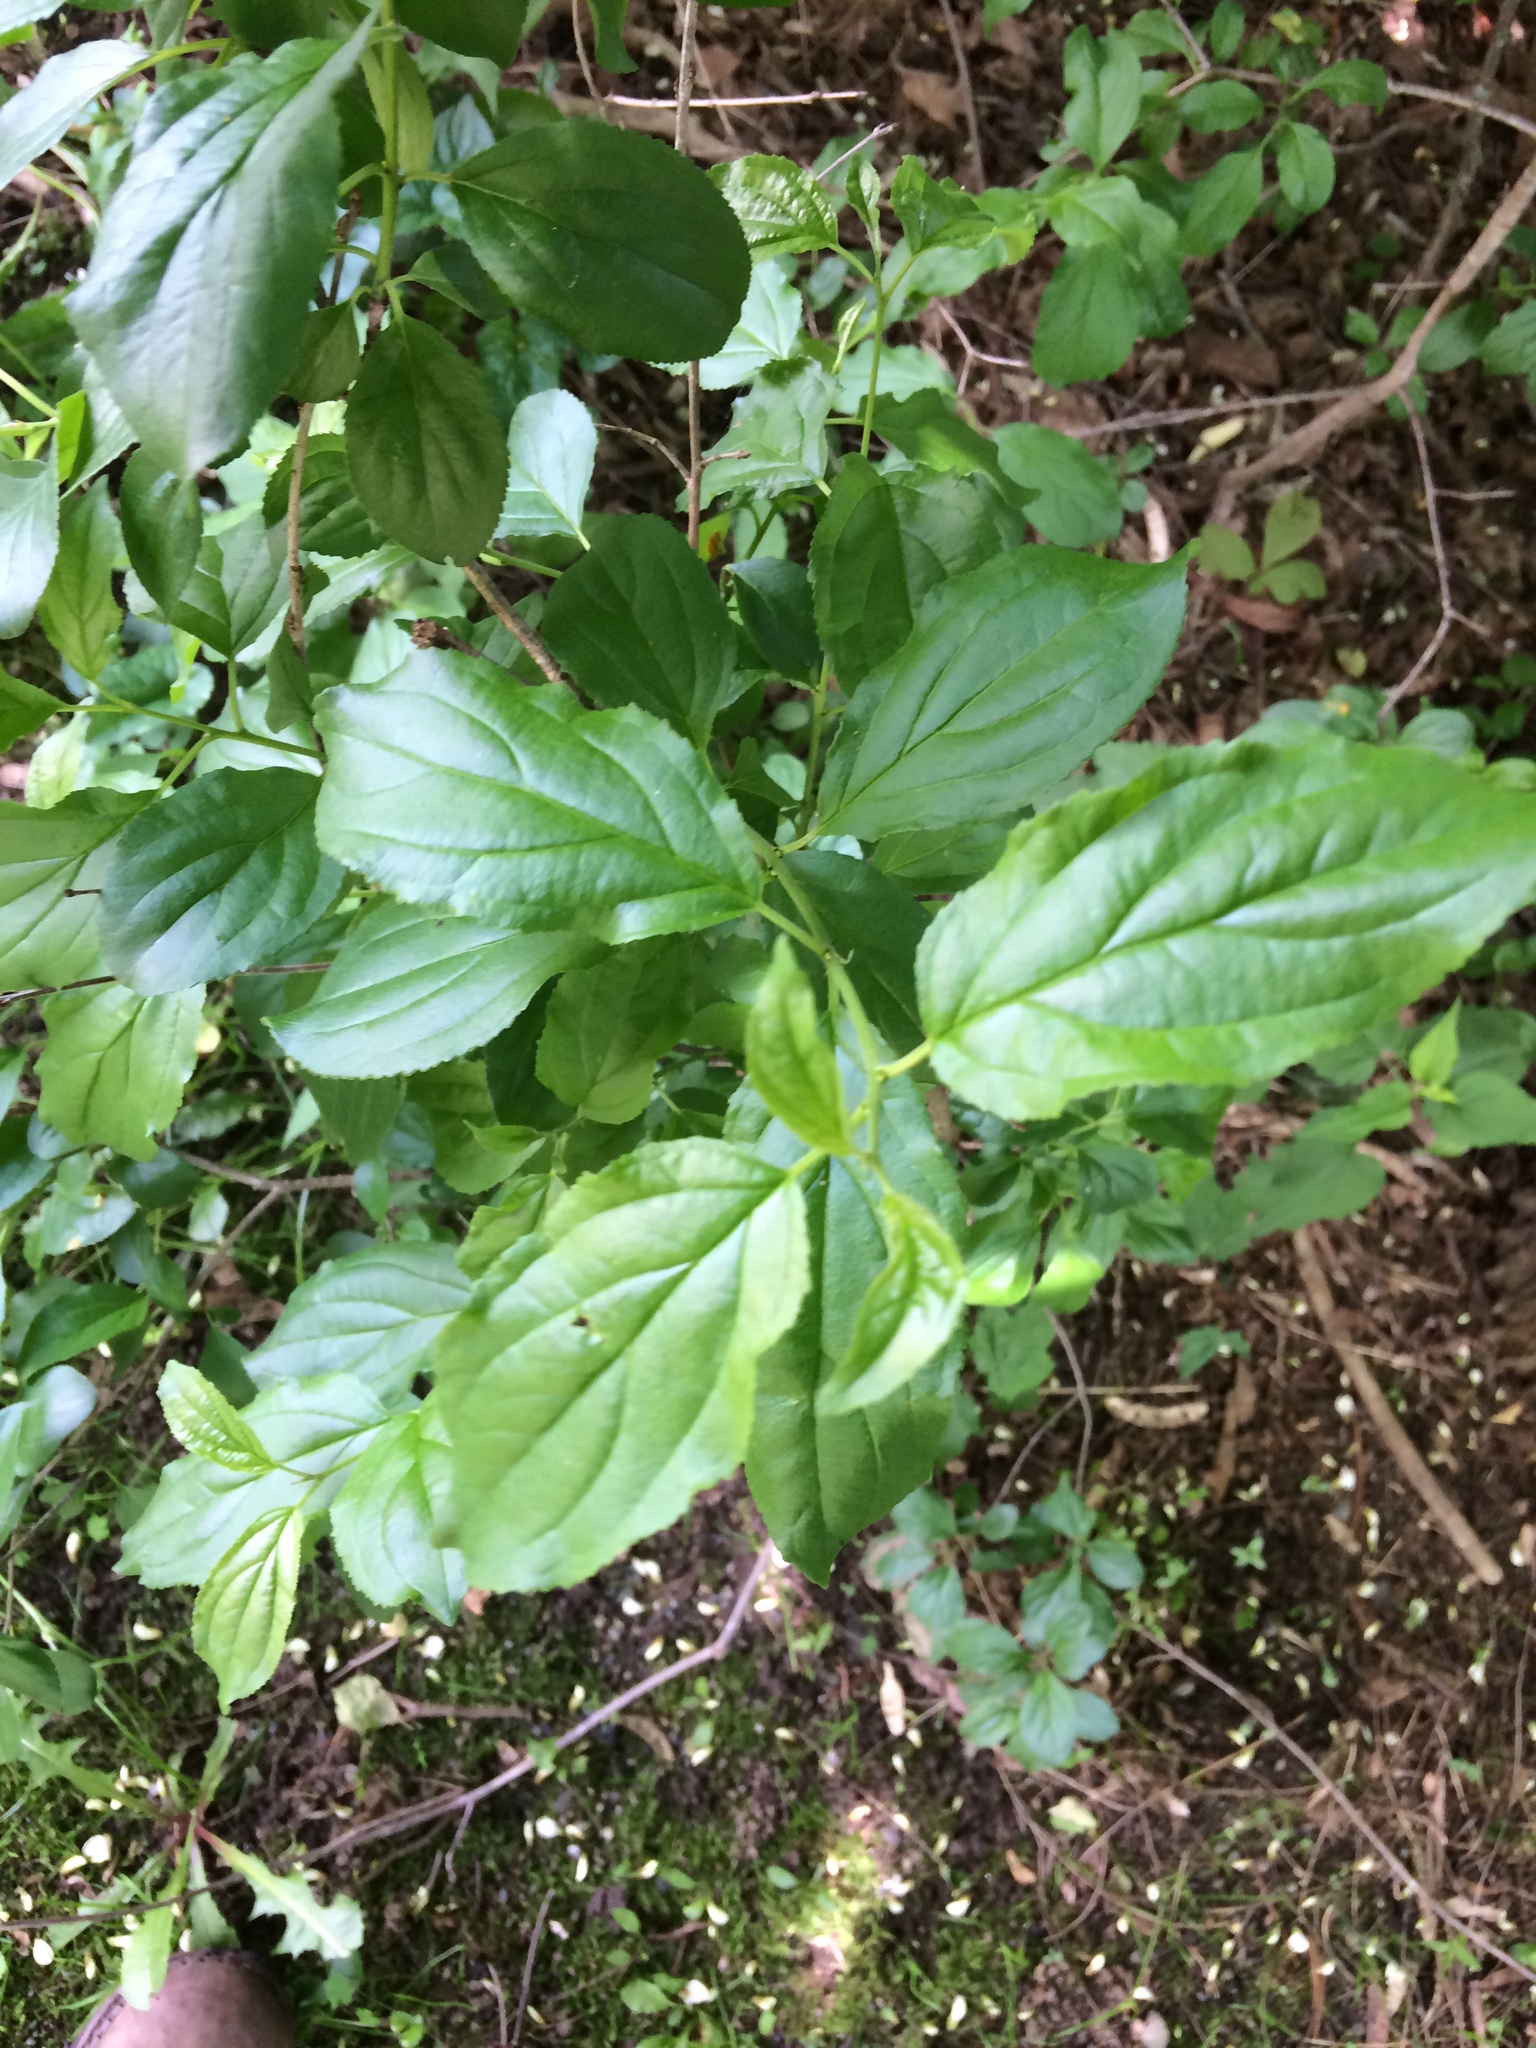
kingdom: Plantae
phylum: Tracheophyta
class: Magnoliopsida
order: Rosales
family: Rhamnaceae
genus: Rhamnus
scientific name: Rhamnus cathartica
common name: Common buckthorn
